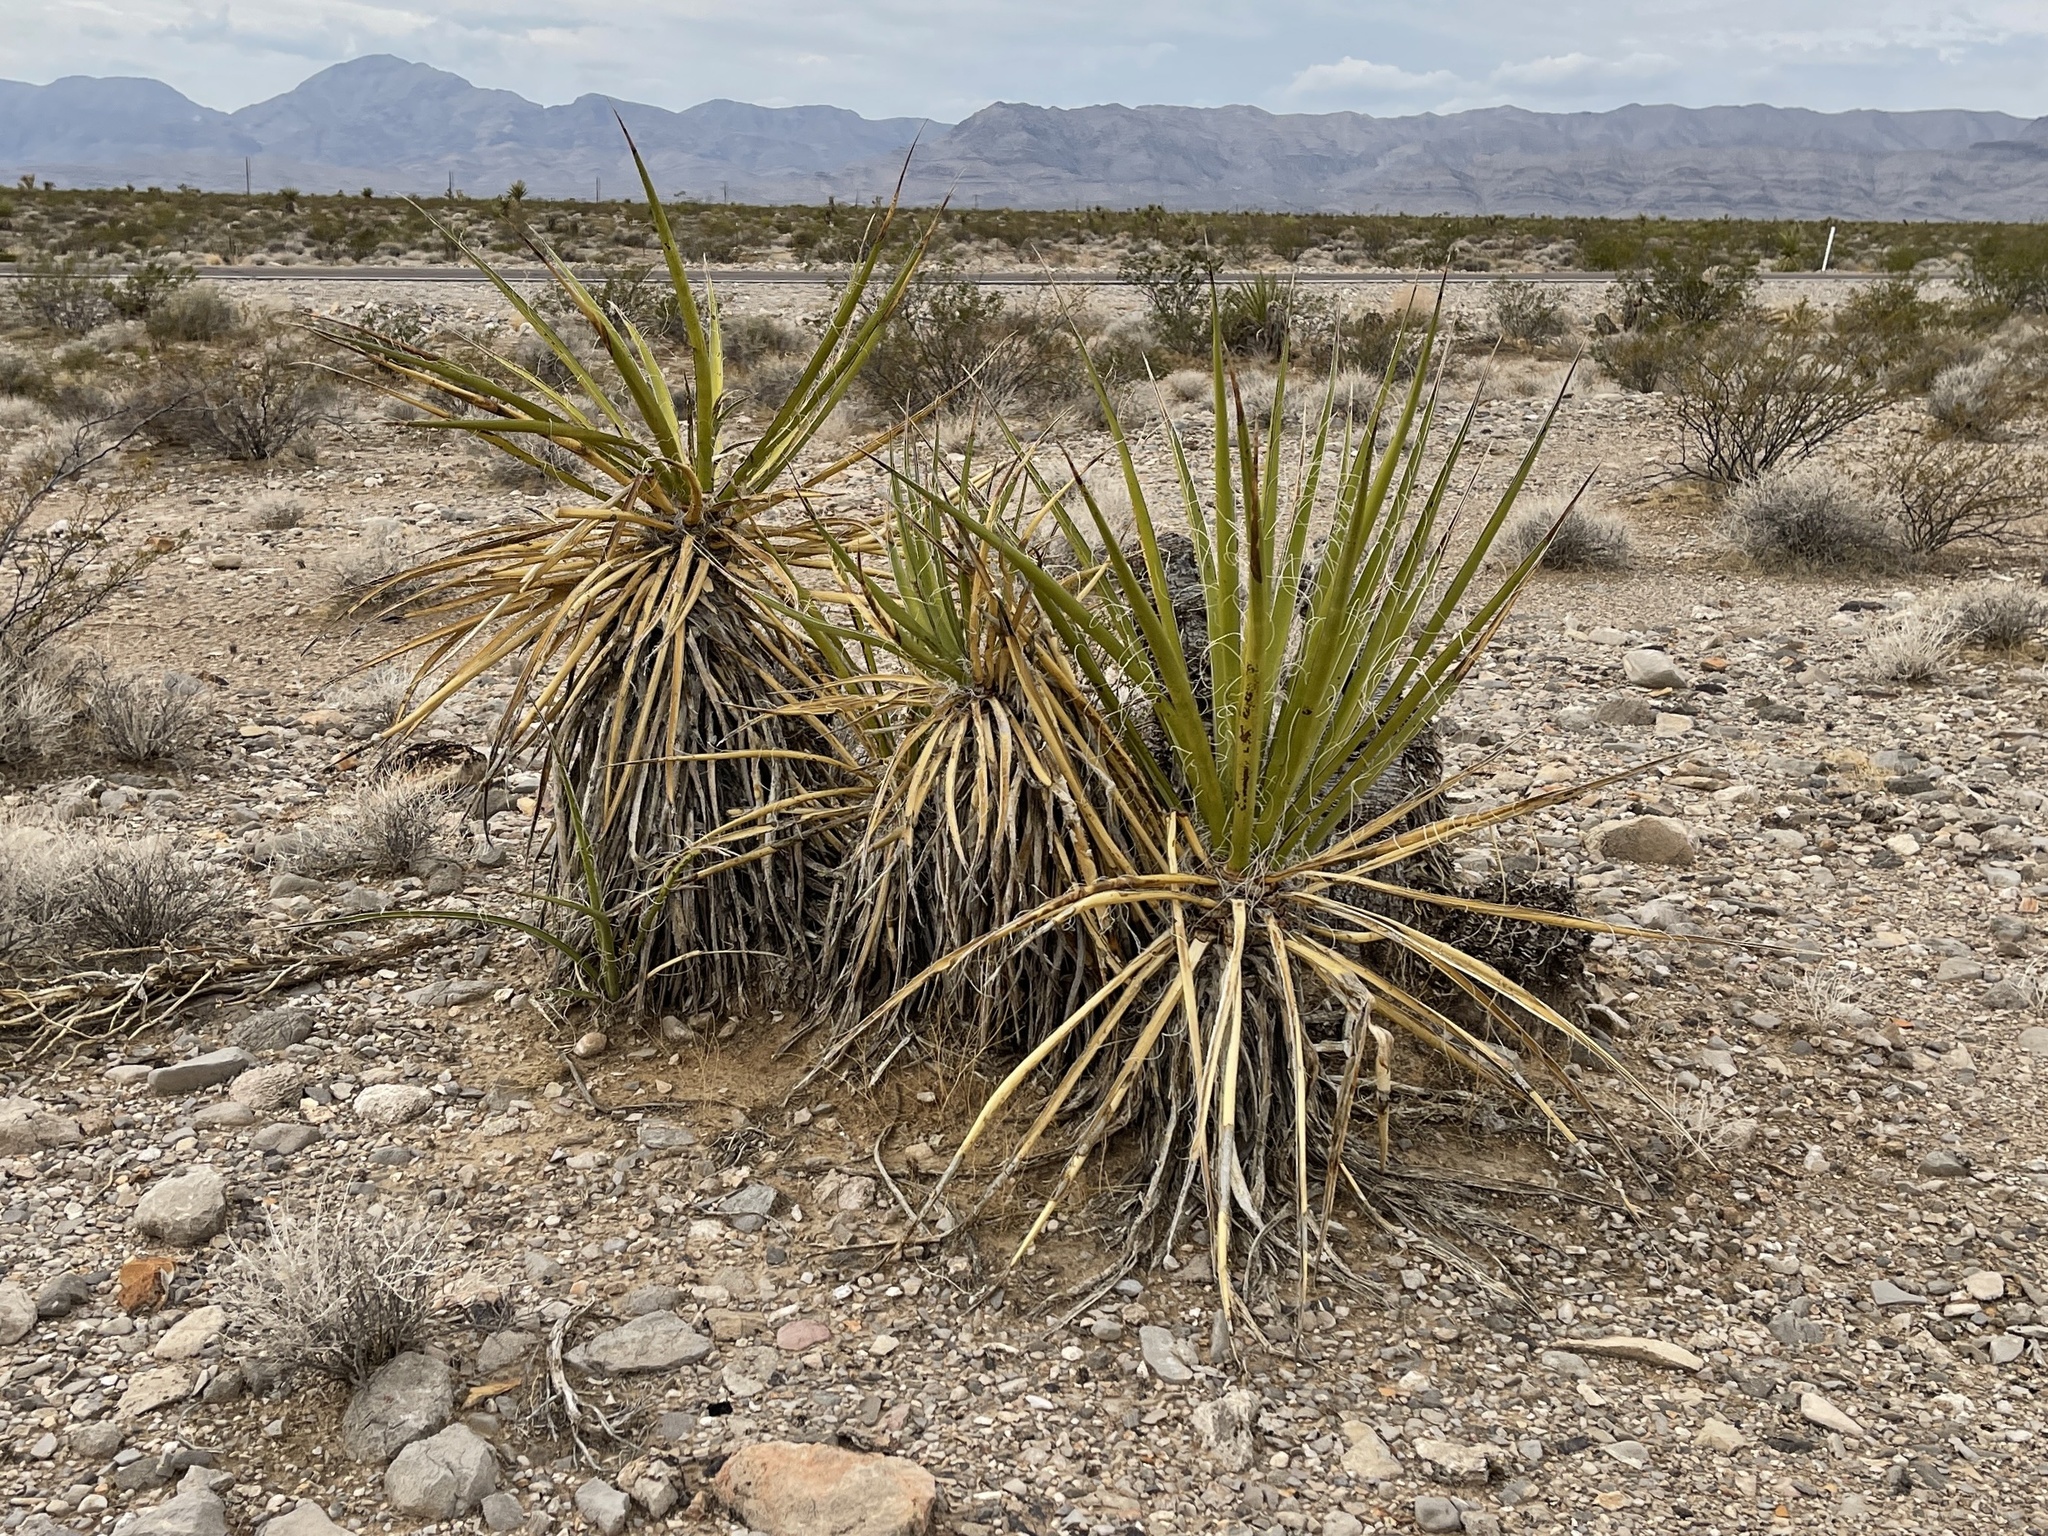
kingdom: Plantae
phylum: Tracheophyta
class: Liliopsida
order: Asparagales
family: Asparagaceae
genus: Yucca
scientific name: Yucca schidigera
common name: Mojave yucca
